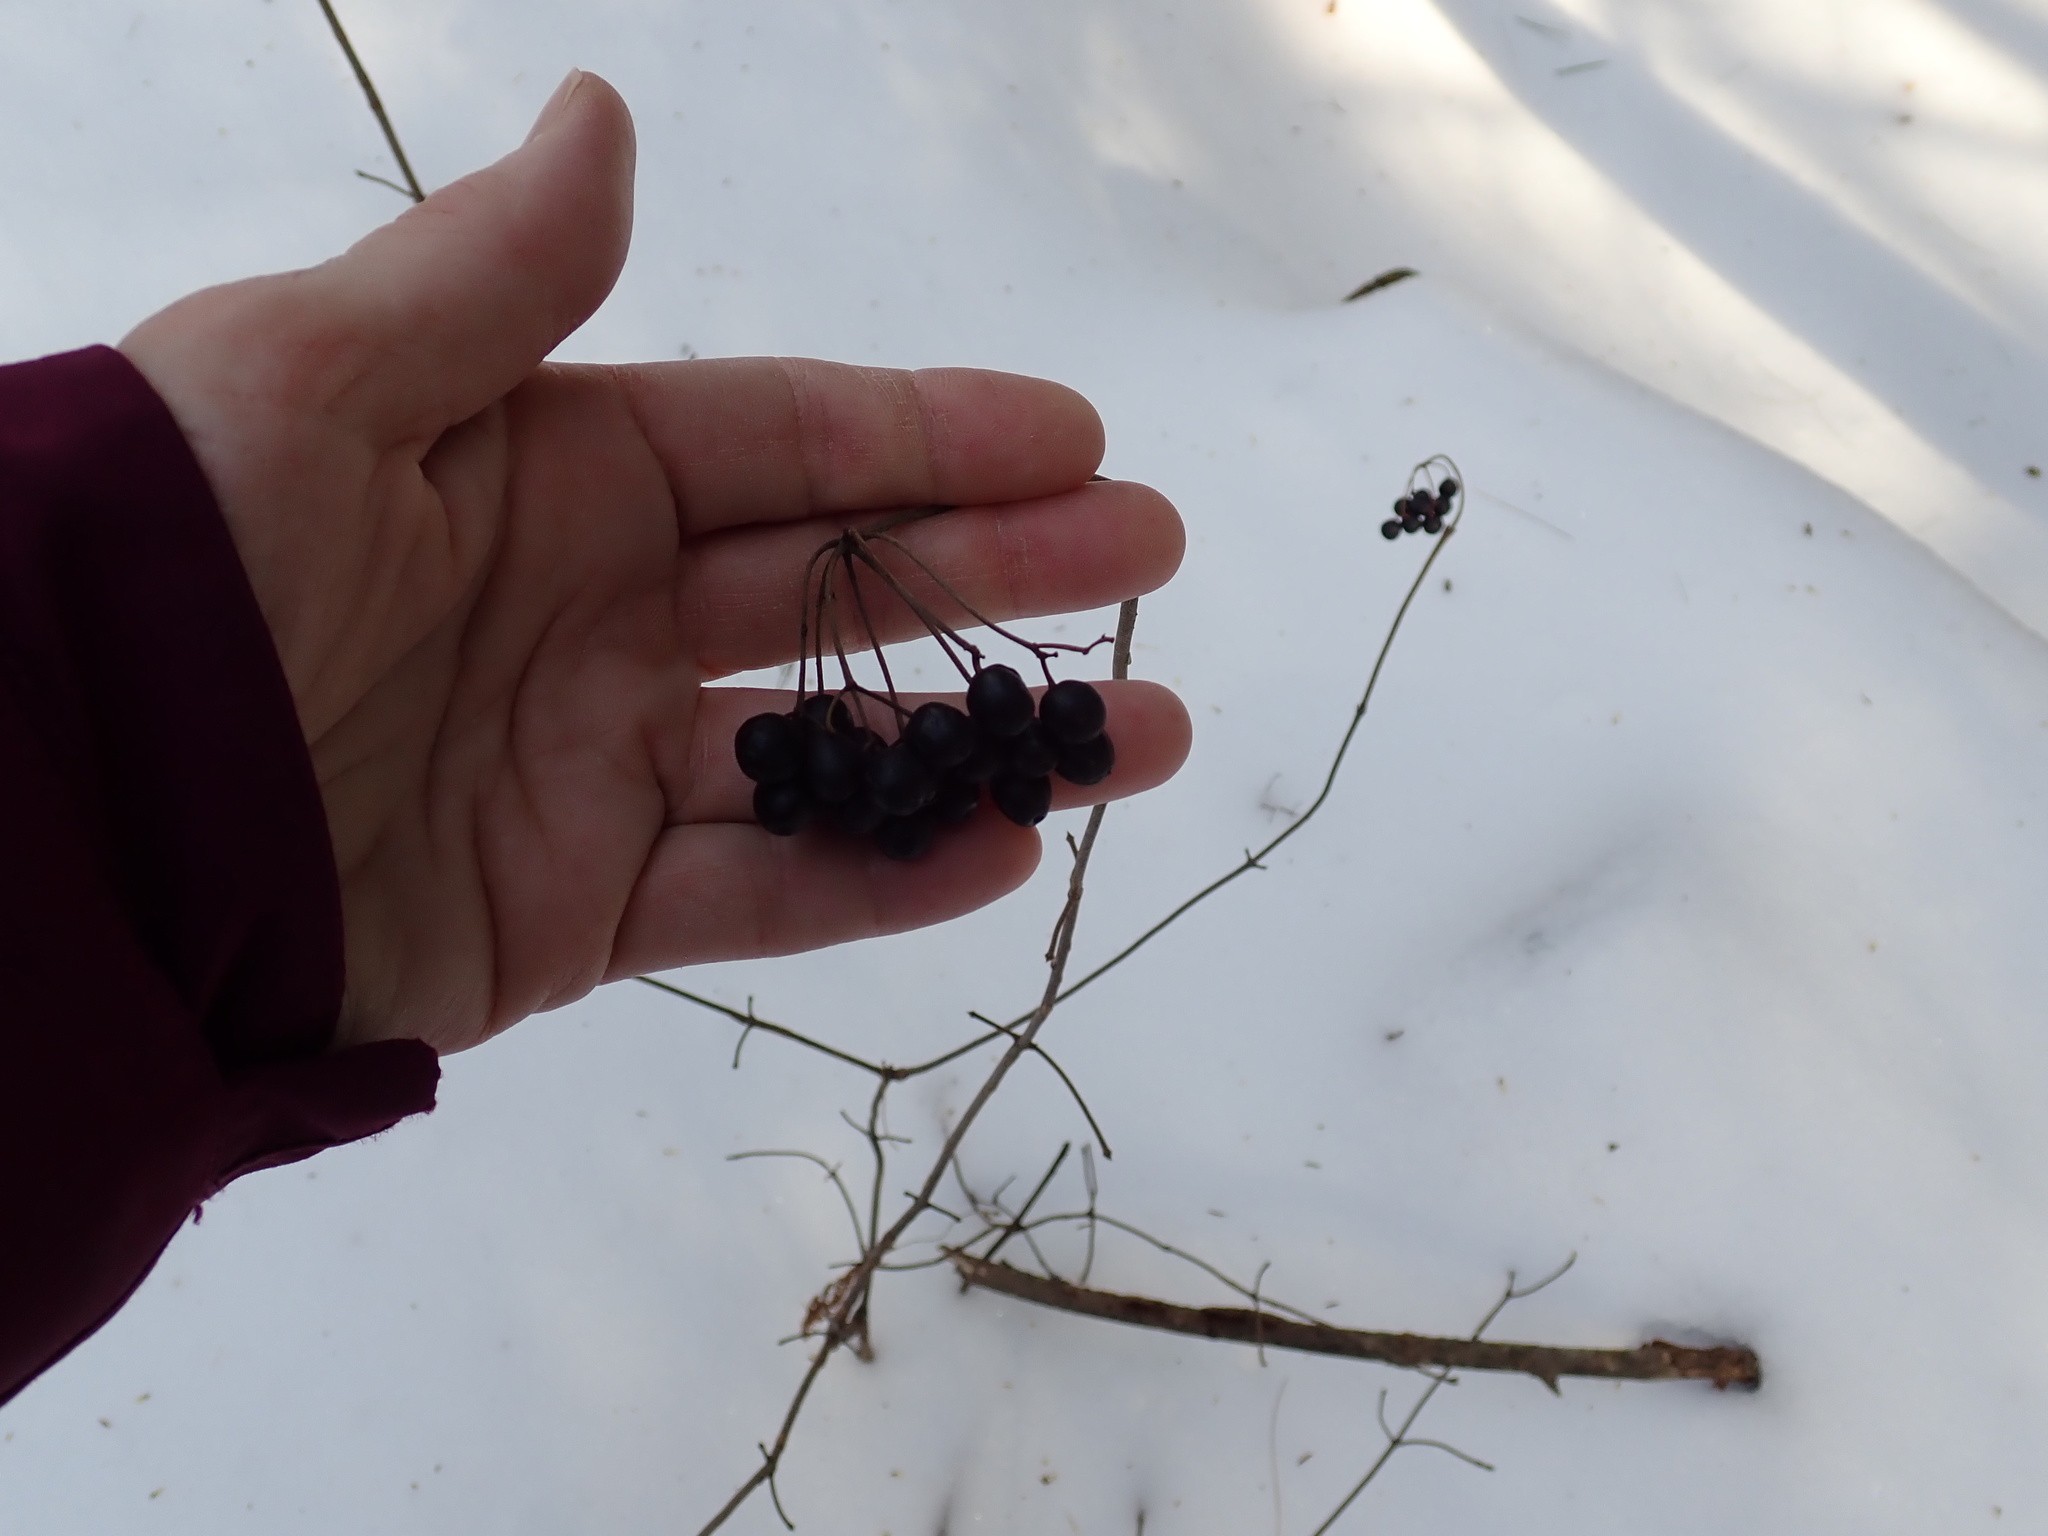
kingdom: Plantae
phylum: Tracheophyta
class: Magnoliopsida
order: Dipsacales
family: Viburnaceae
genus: Viburnum
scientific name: Viburnum acerifolium
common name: Dockmackie
